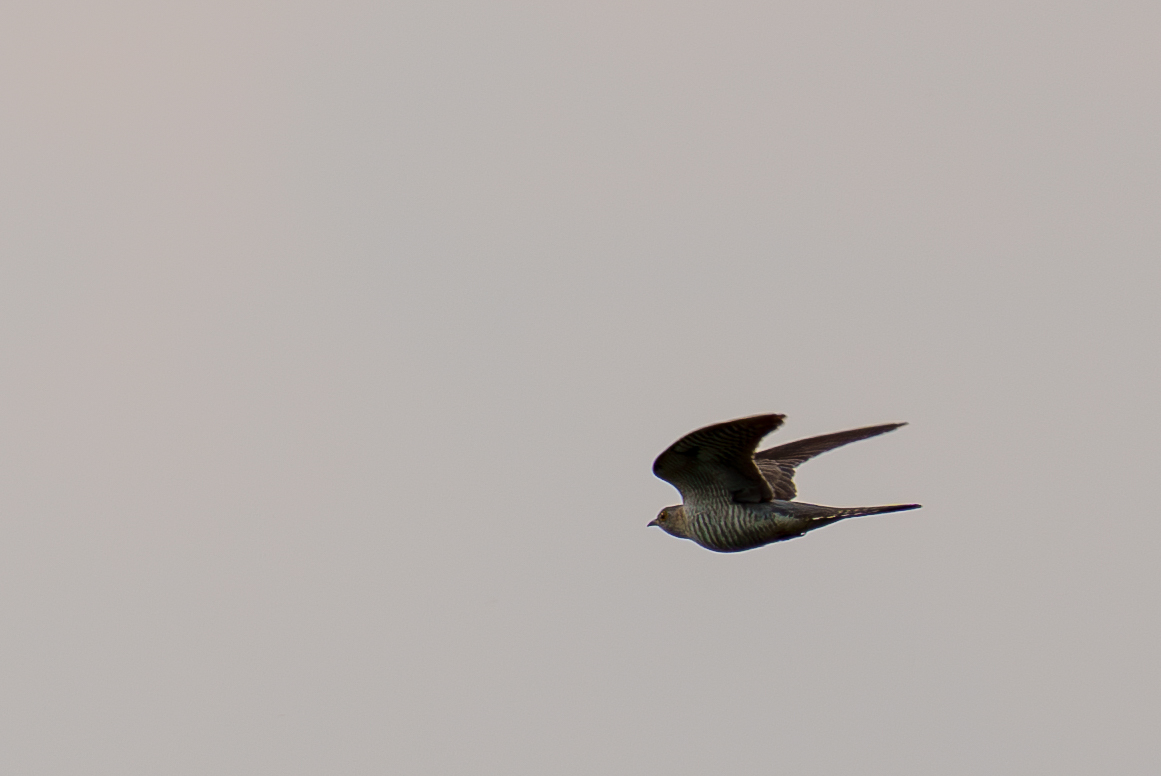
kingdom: Animalia
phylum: Chordata
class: Aves
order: Cuculiformes
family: Cuculidae
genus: Cuculus
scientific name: Cuculus canorus
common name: Common cuckoo
